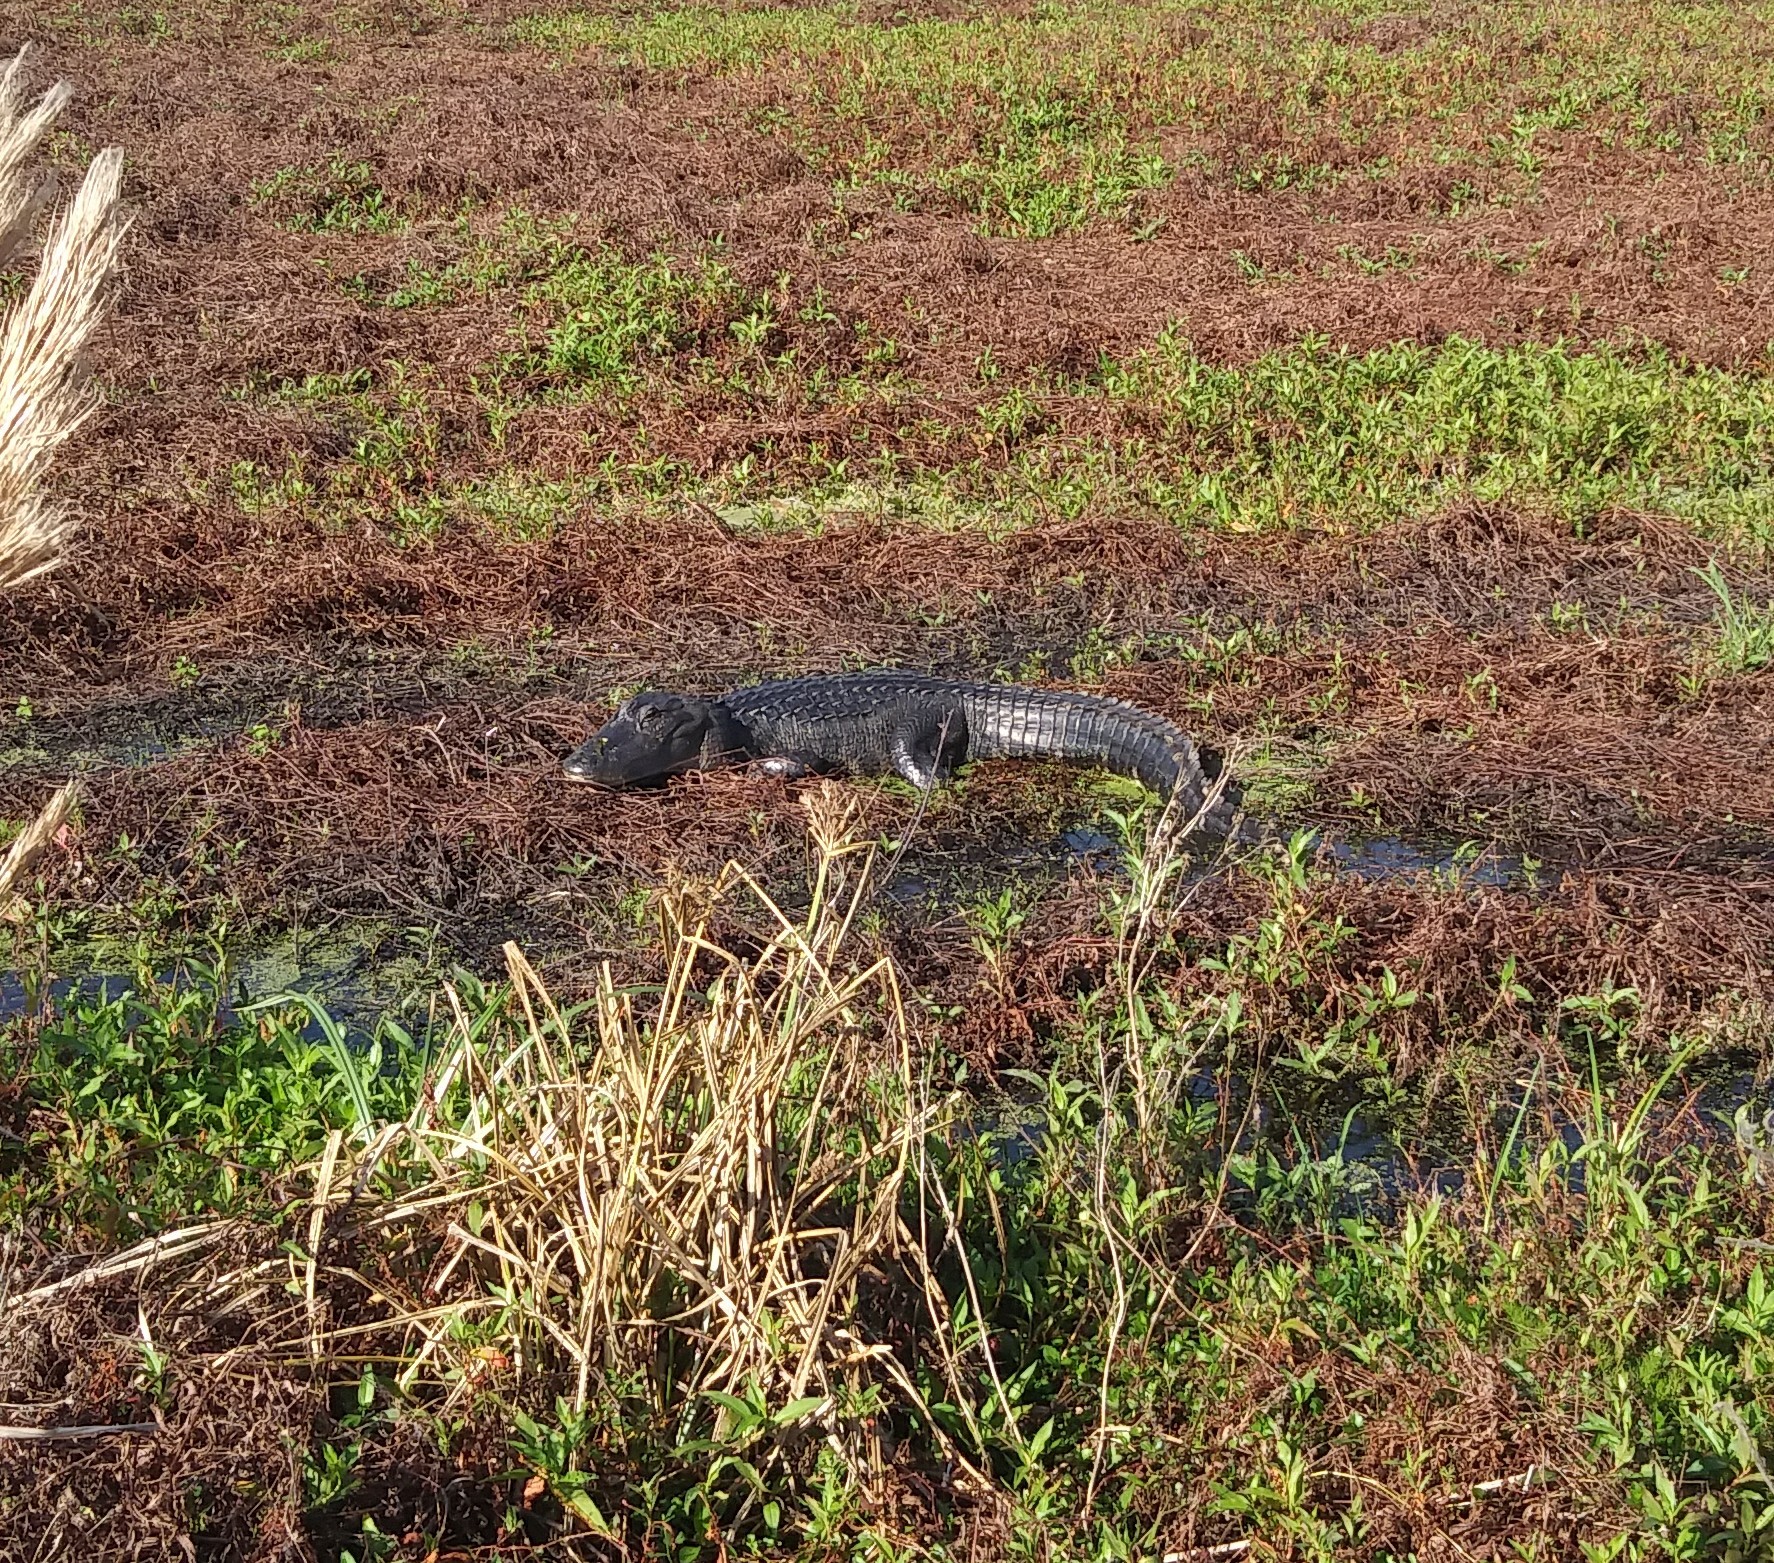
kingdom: Animalia
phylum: Chordata
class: Crocodylia
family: Alligatoridae
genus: Alligator
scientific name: Alligator mississippiensis
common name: American alligator
